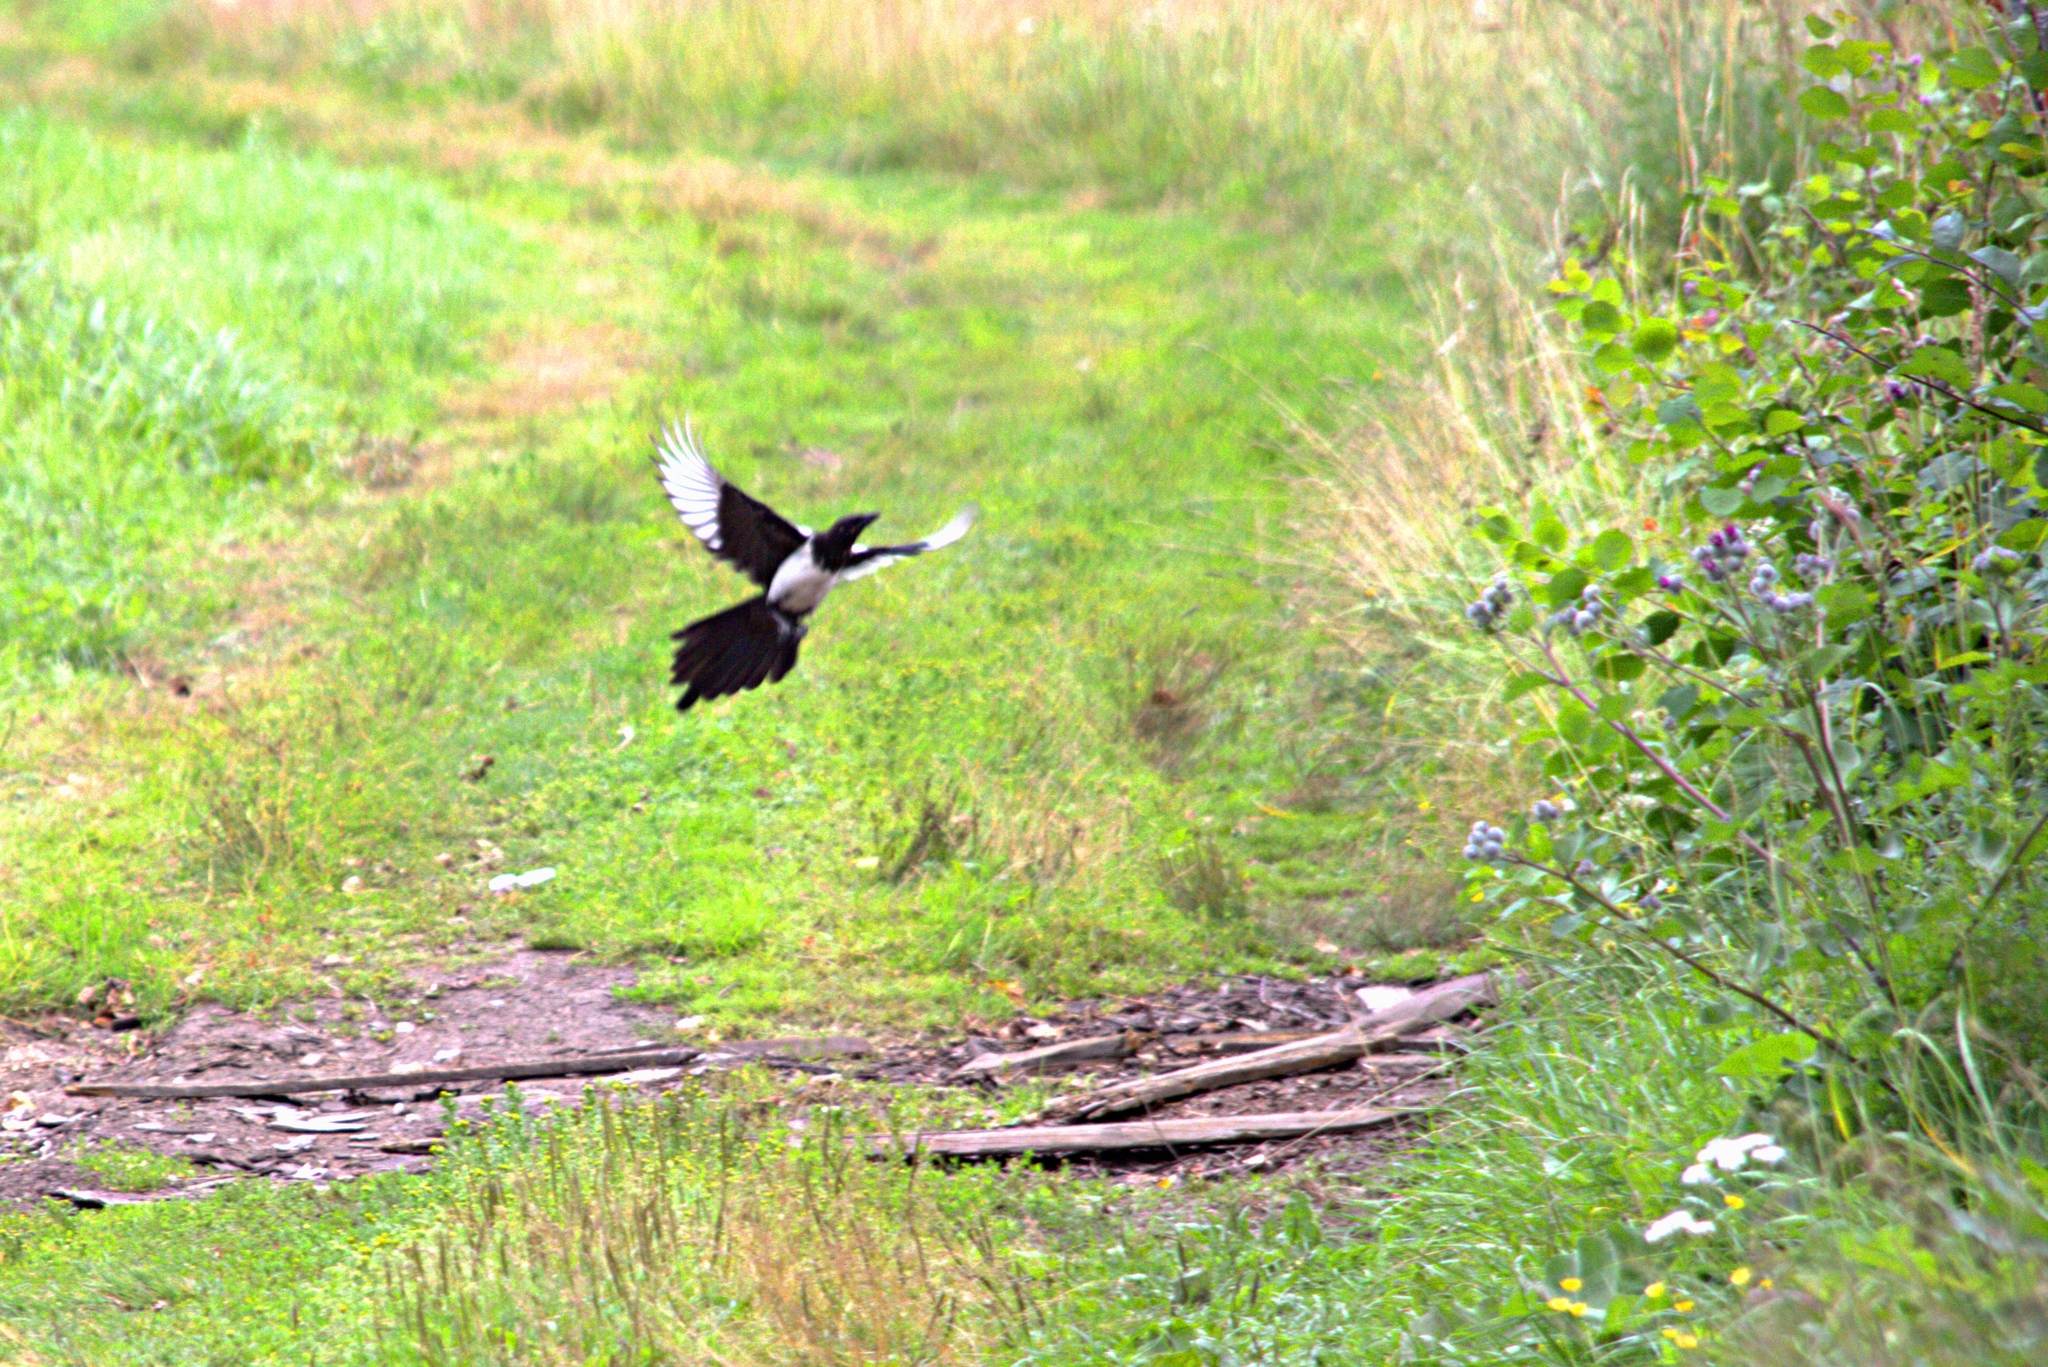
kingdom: Animalia
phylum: Chordata
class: Aves
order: Passeriformes
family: Corvidae
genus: Pica
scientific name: Pica pica
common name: Eurasian magpie
